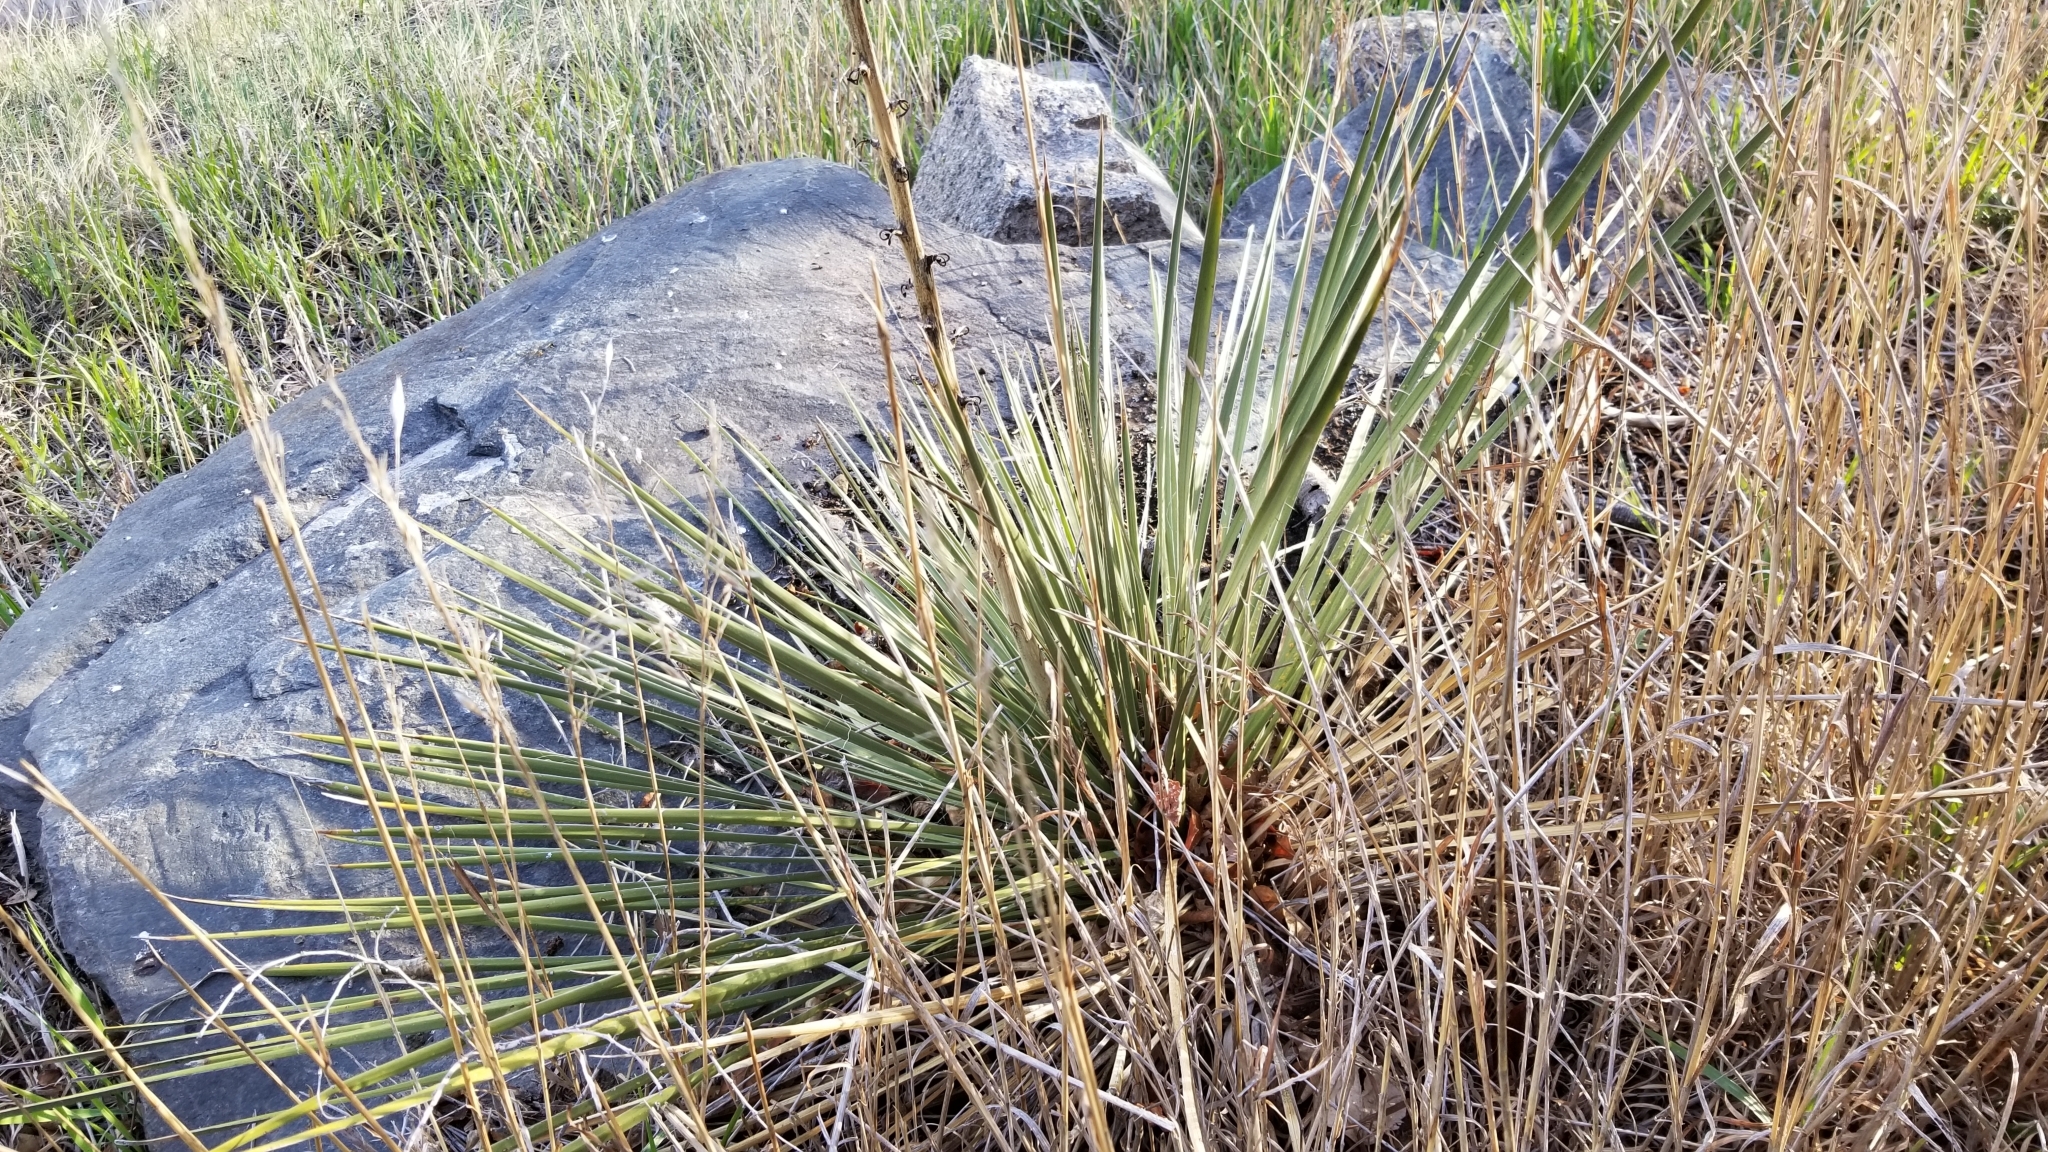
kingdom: Plantae
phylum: Tracheophyta
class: Liliopsida
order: Asparagales
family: Asparagaceae
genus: Yucca
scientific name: Yucca glauca
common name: Great plains yucca
